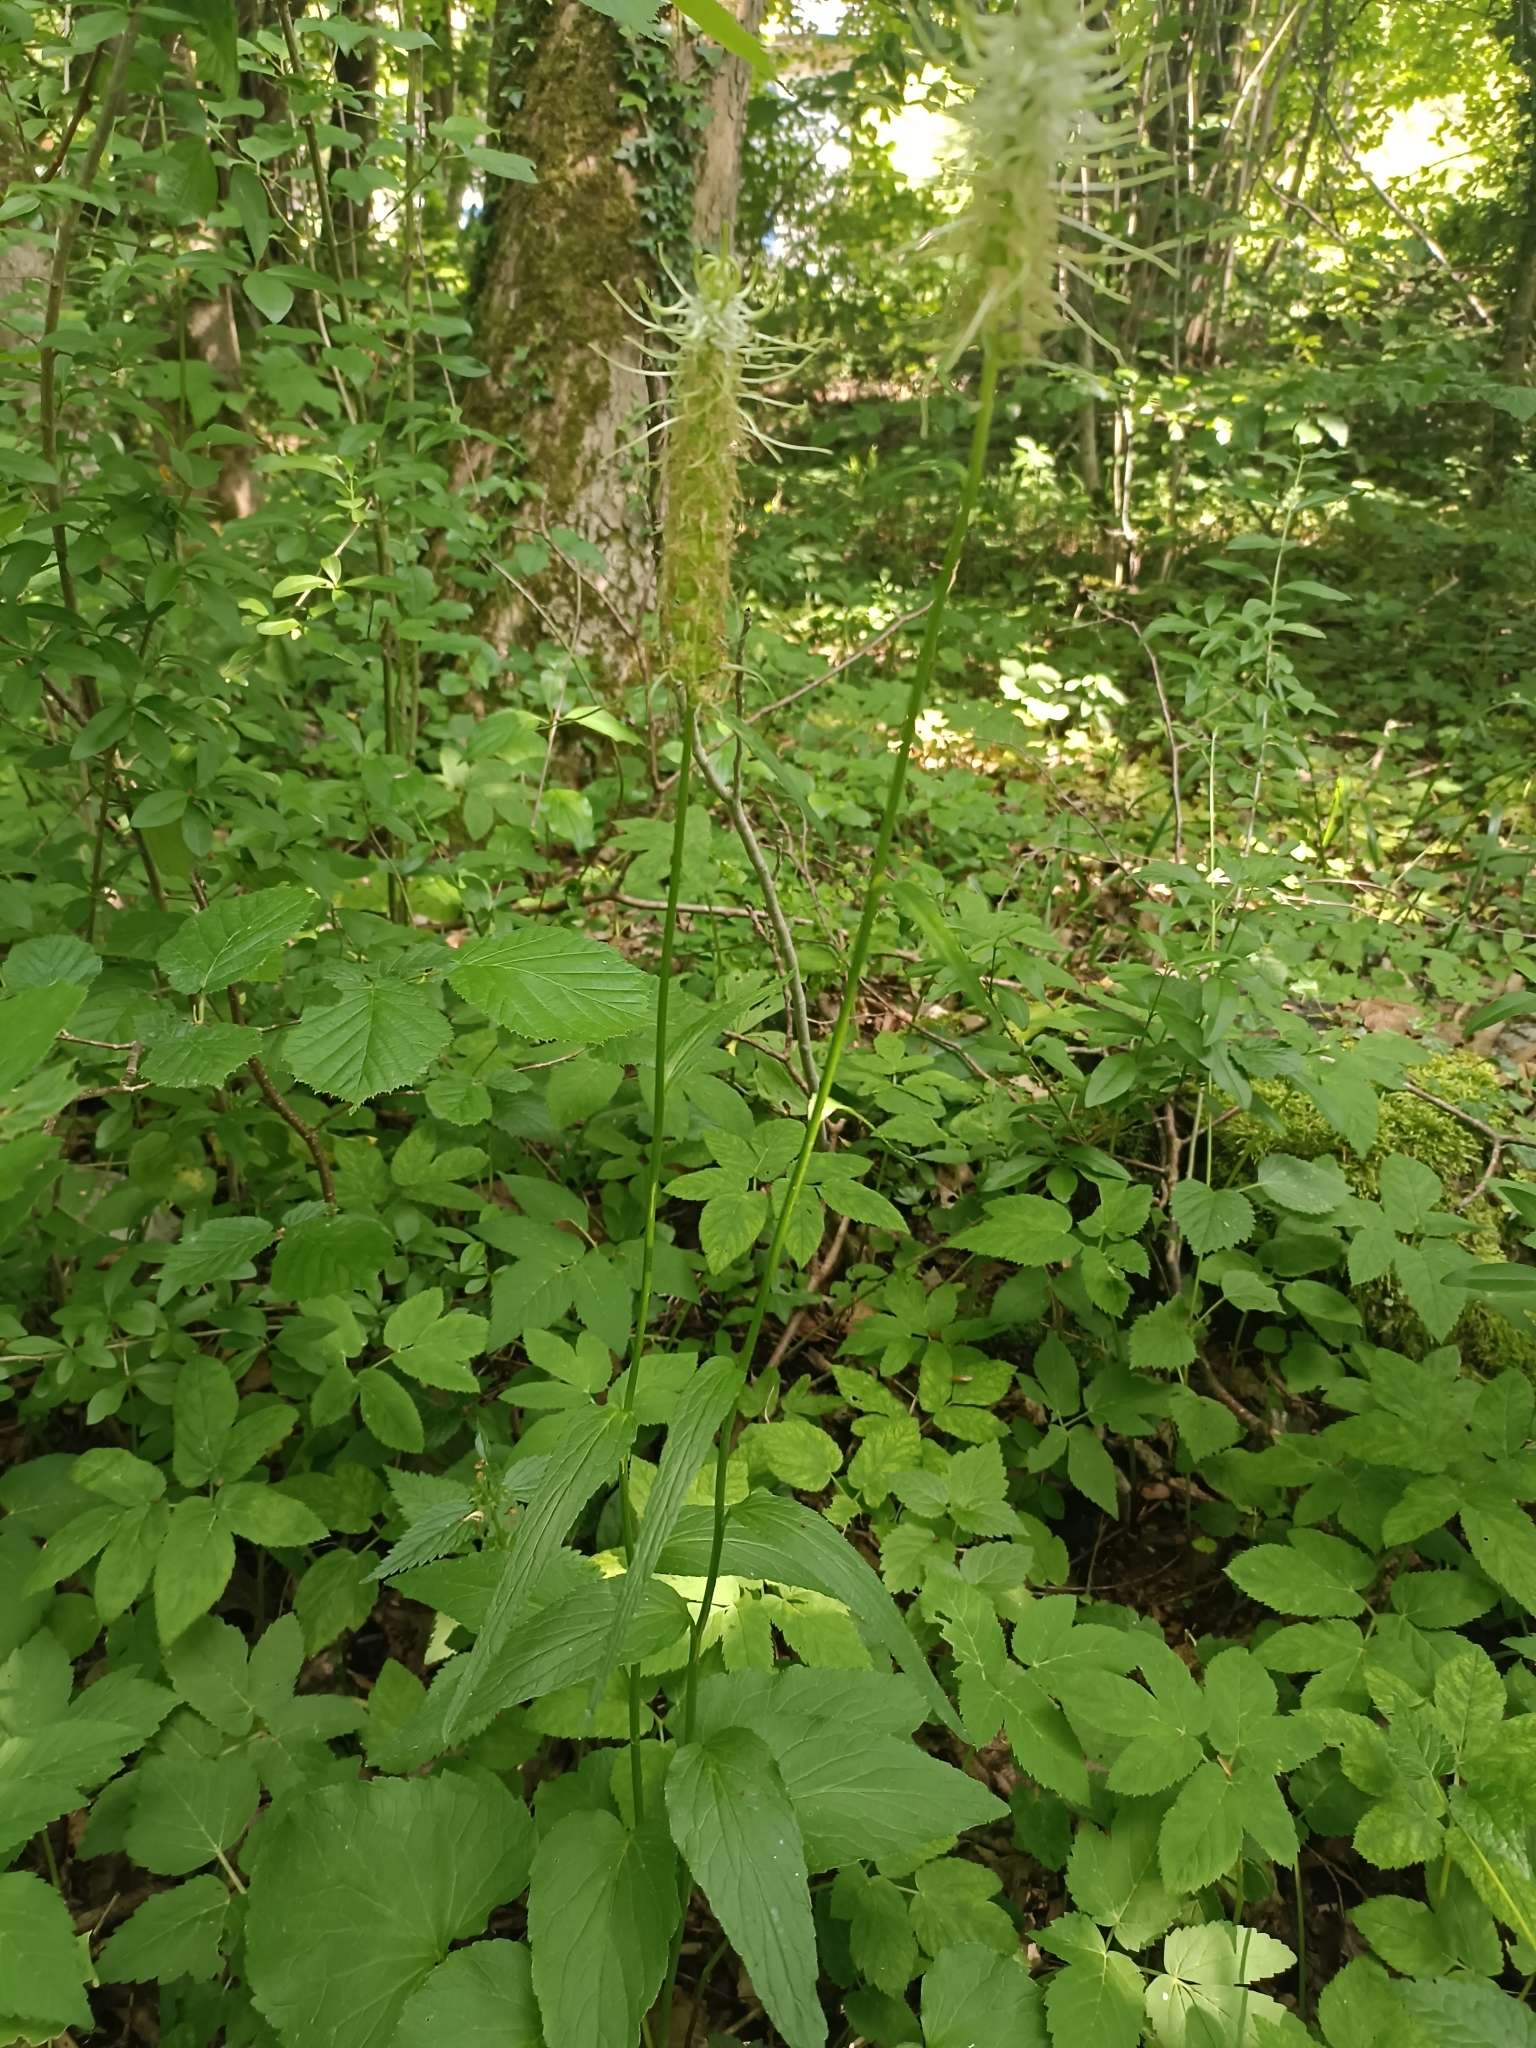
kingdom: Plantae
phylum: Tracheophyta
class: Magnoliopsida
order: Asterales
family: Campanulaceae
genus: Phyteuma
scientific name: Phyteuma spicatum
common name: Spiked rampion
